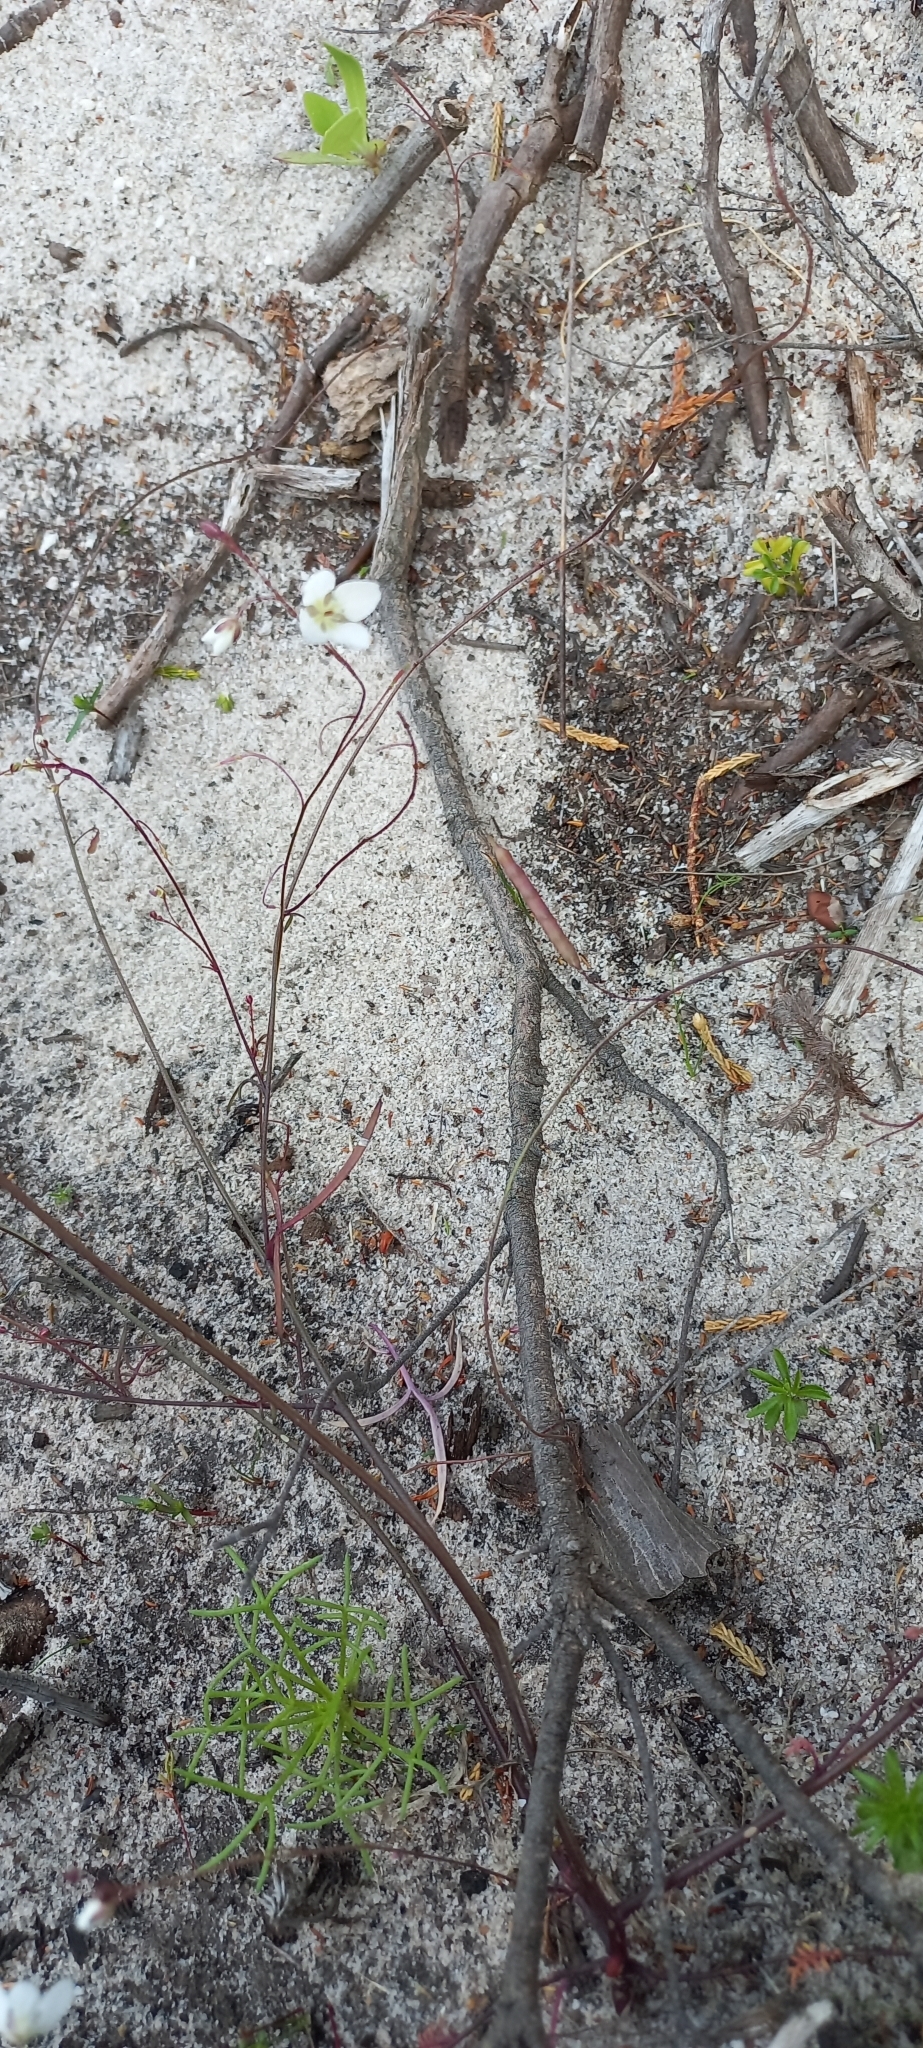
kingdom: Plantae
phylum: Tracheophyta
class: Magnoliopsida
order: Brassicales
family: Brassicaceae
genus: Heliophila
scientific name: Heliophila meyeri
